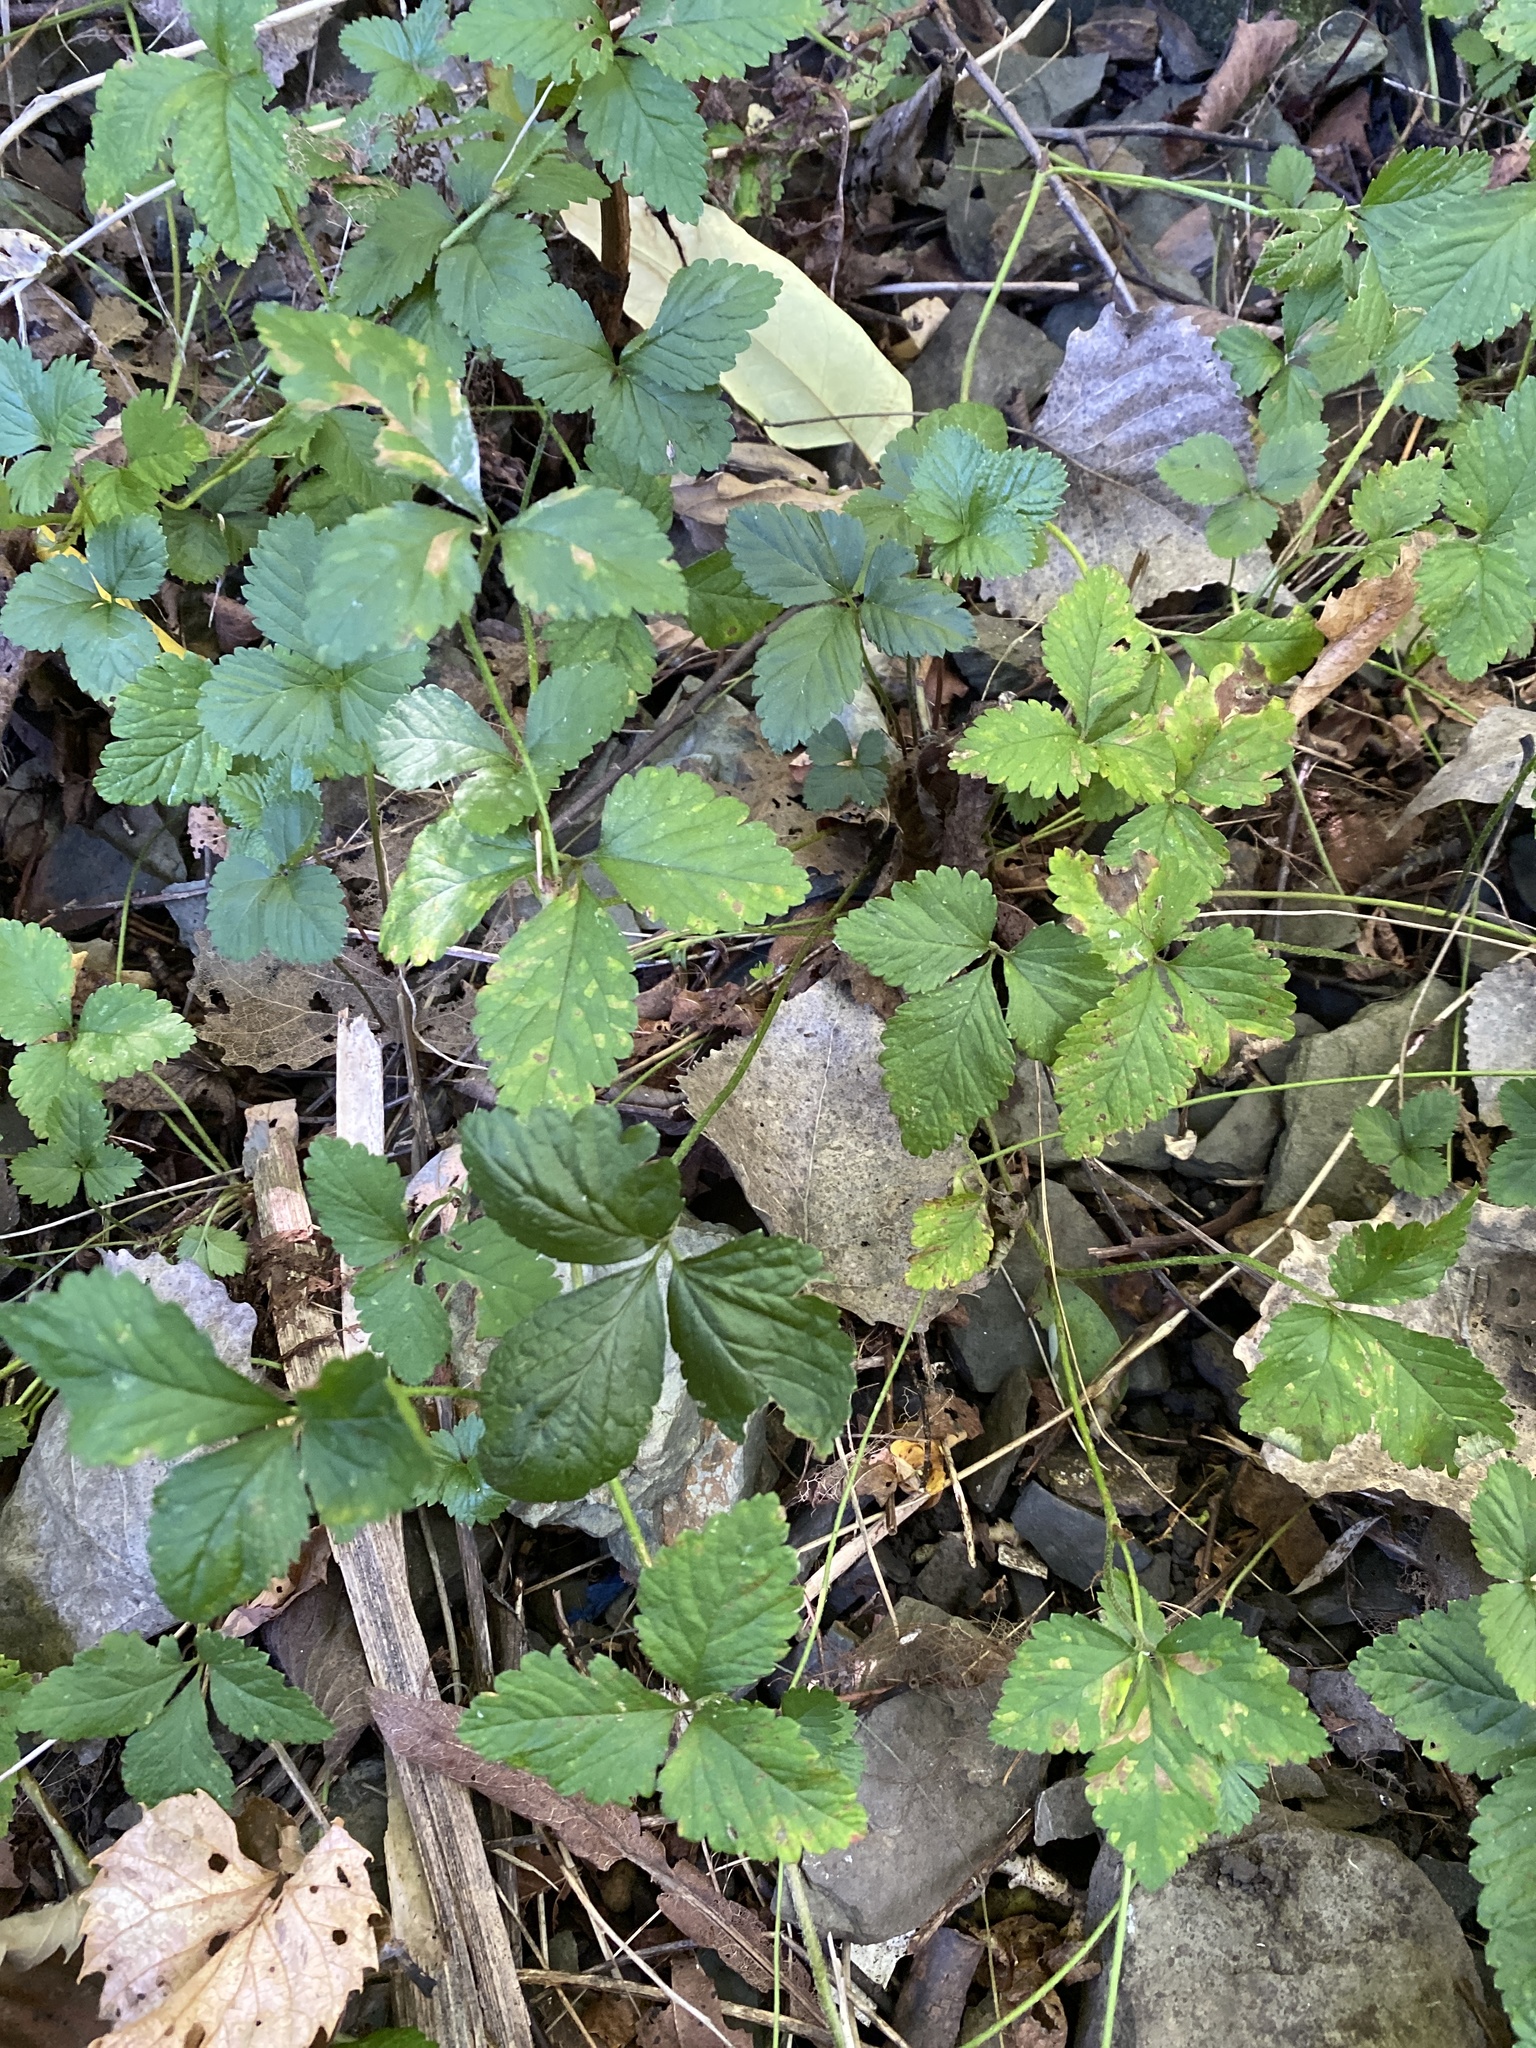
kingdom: Plantae
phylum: Tracheophyta
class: Magnoliopsida
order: Rosales
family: Rosaceae
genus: Potentilla
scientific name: Potentilla indica
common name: Yellow-flowered strawberry
